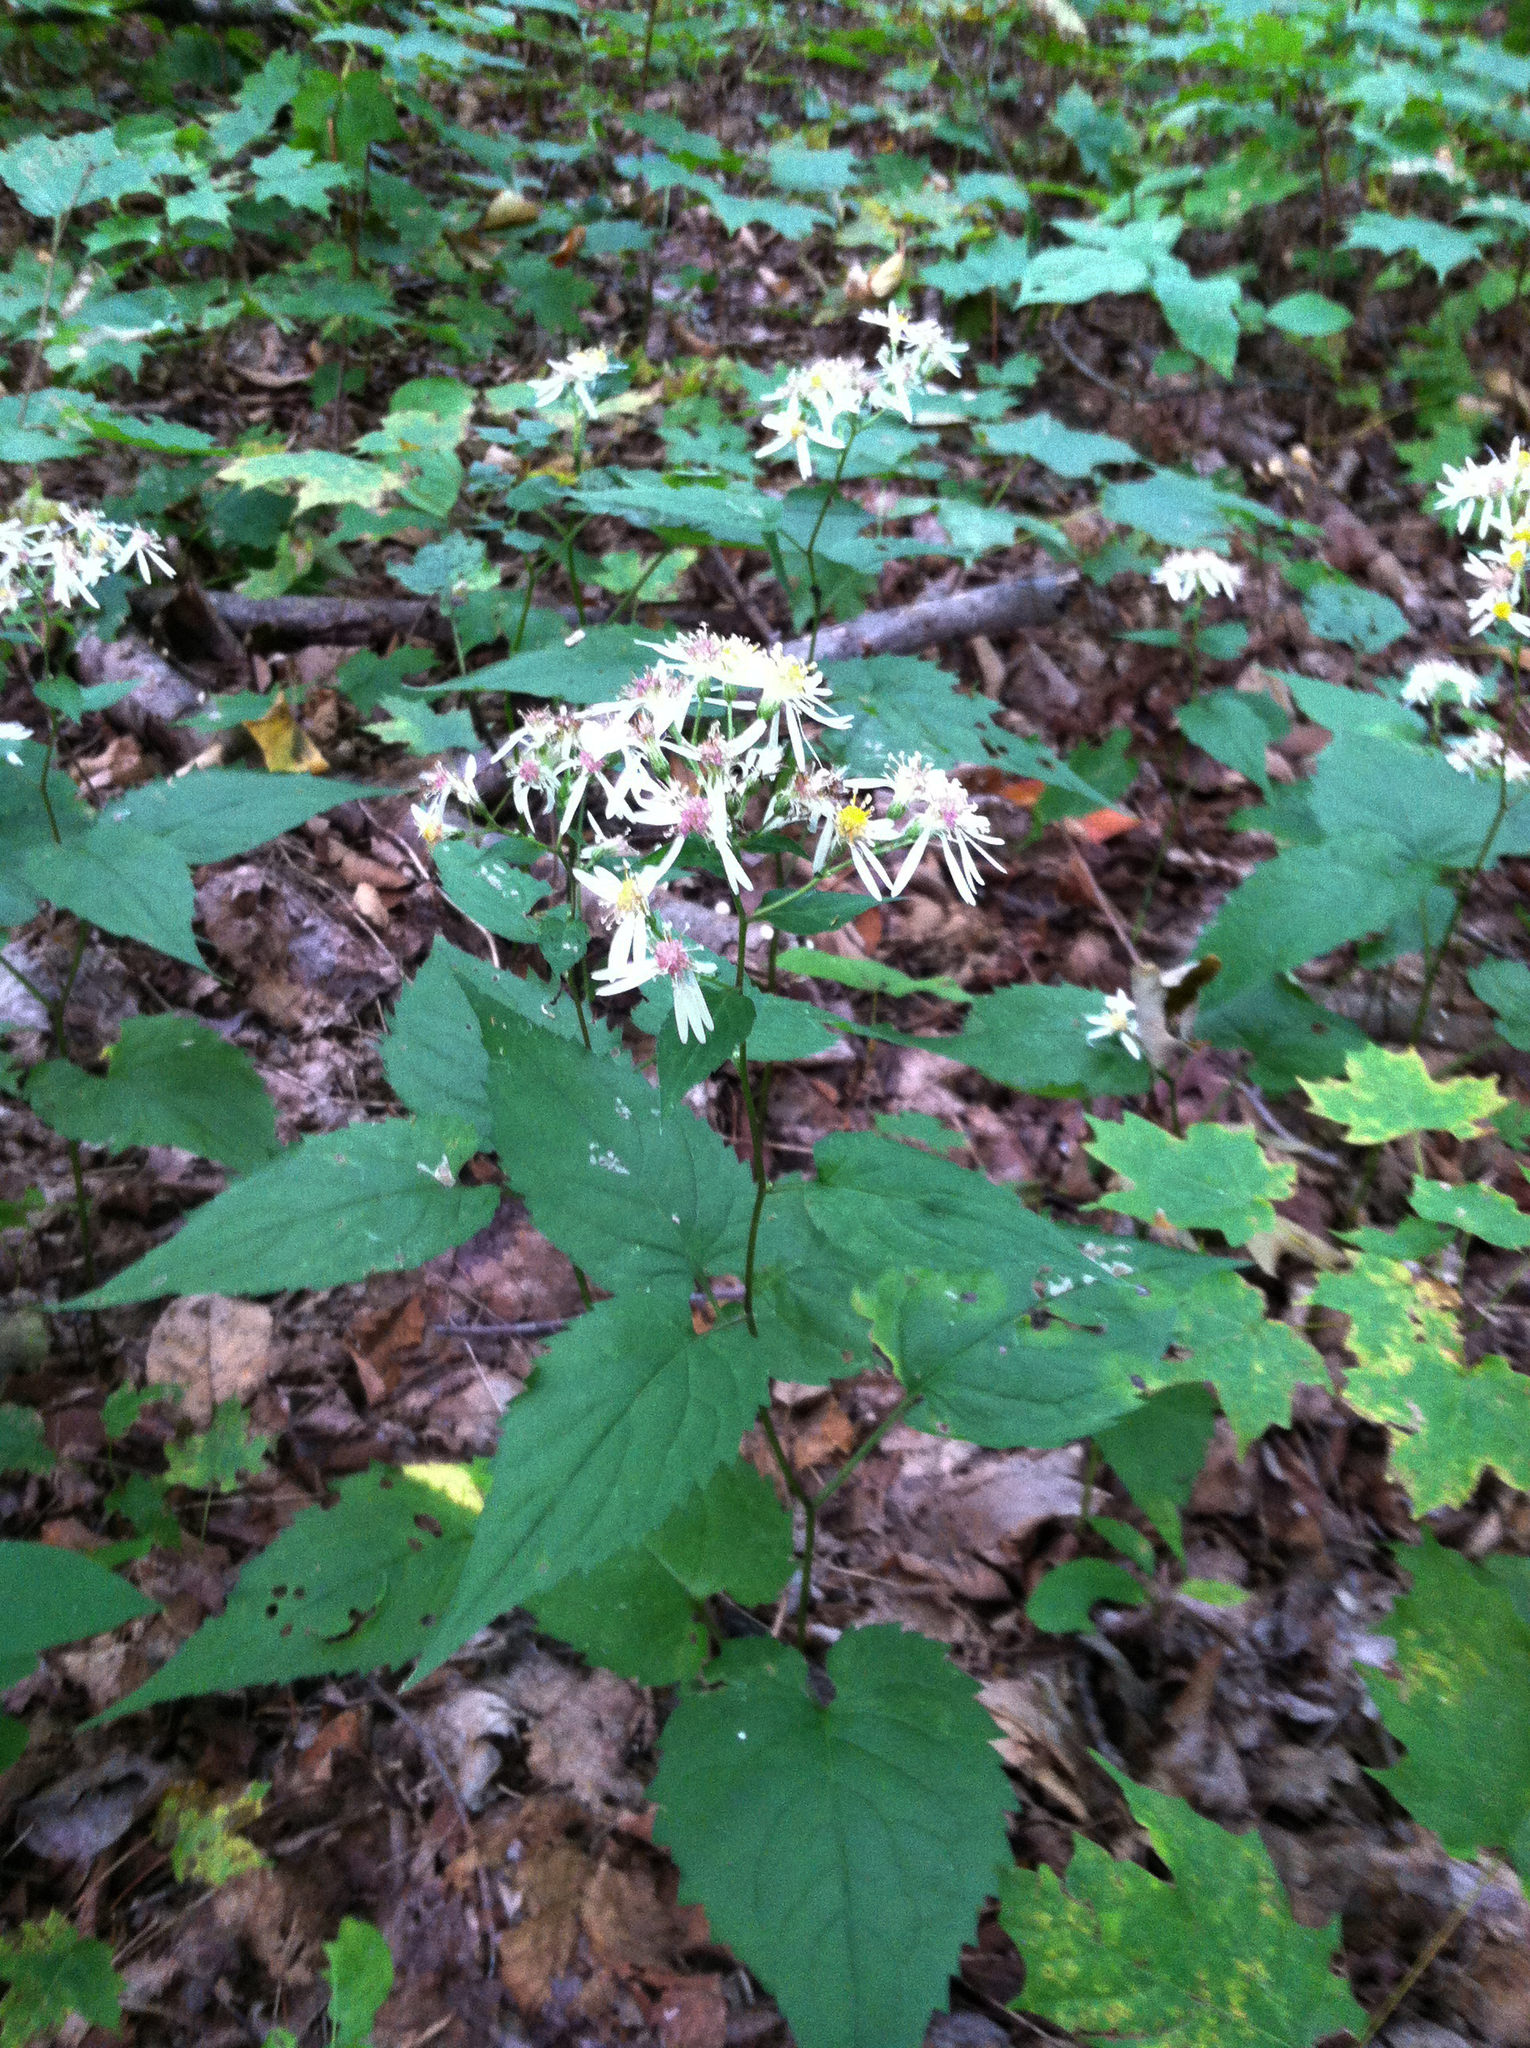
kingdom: Plantae
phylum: Tracheophyta
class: Magnoliopsida
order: Asterales
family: Asteraceae
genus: Eurybia
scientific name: Eurybia divaricata
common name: White wood aster
